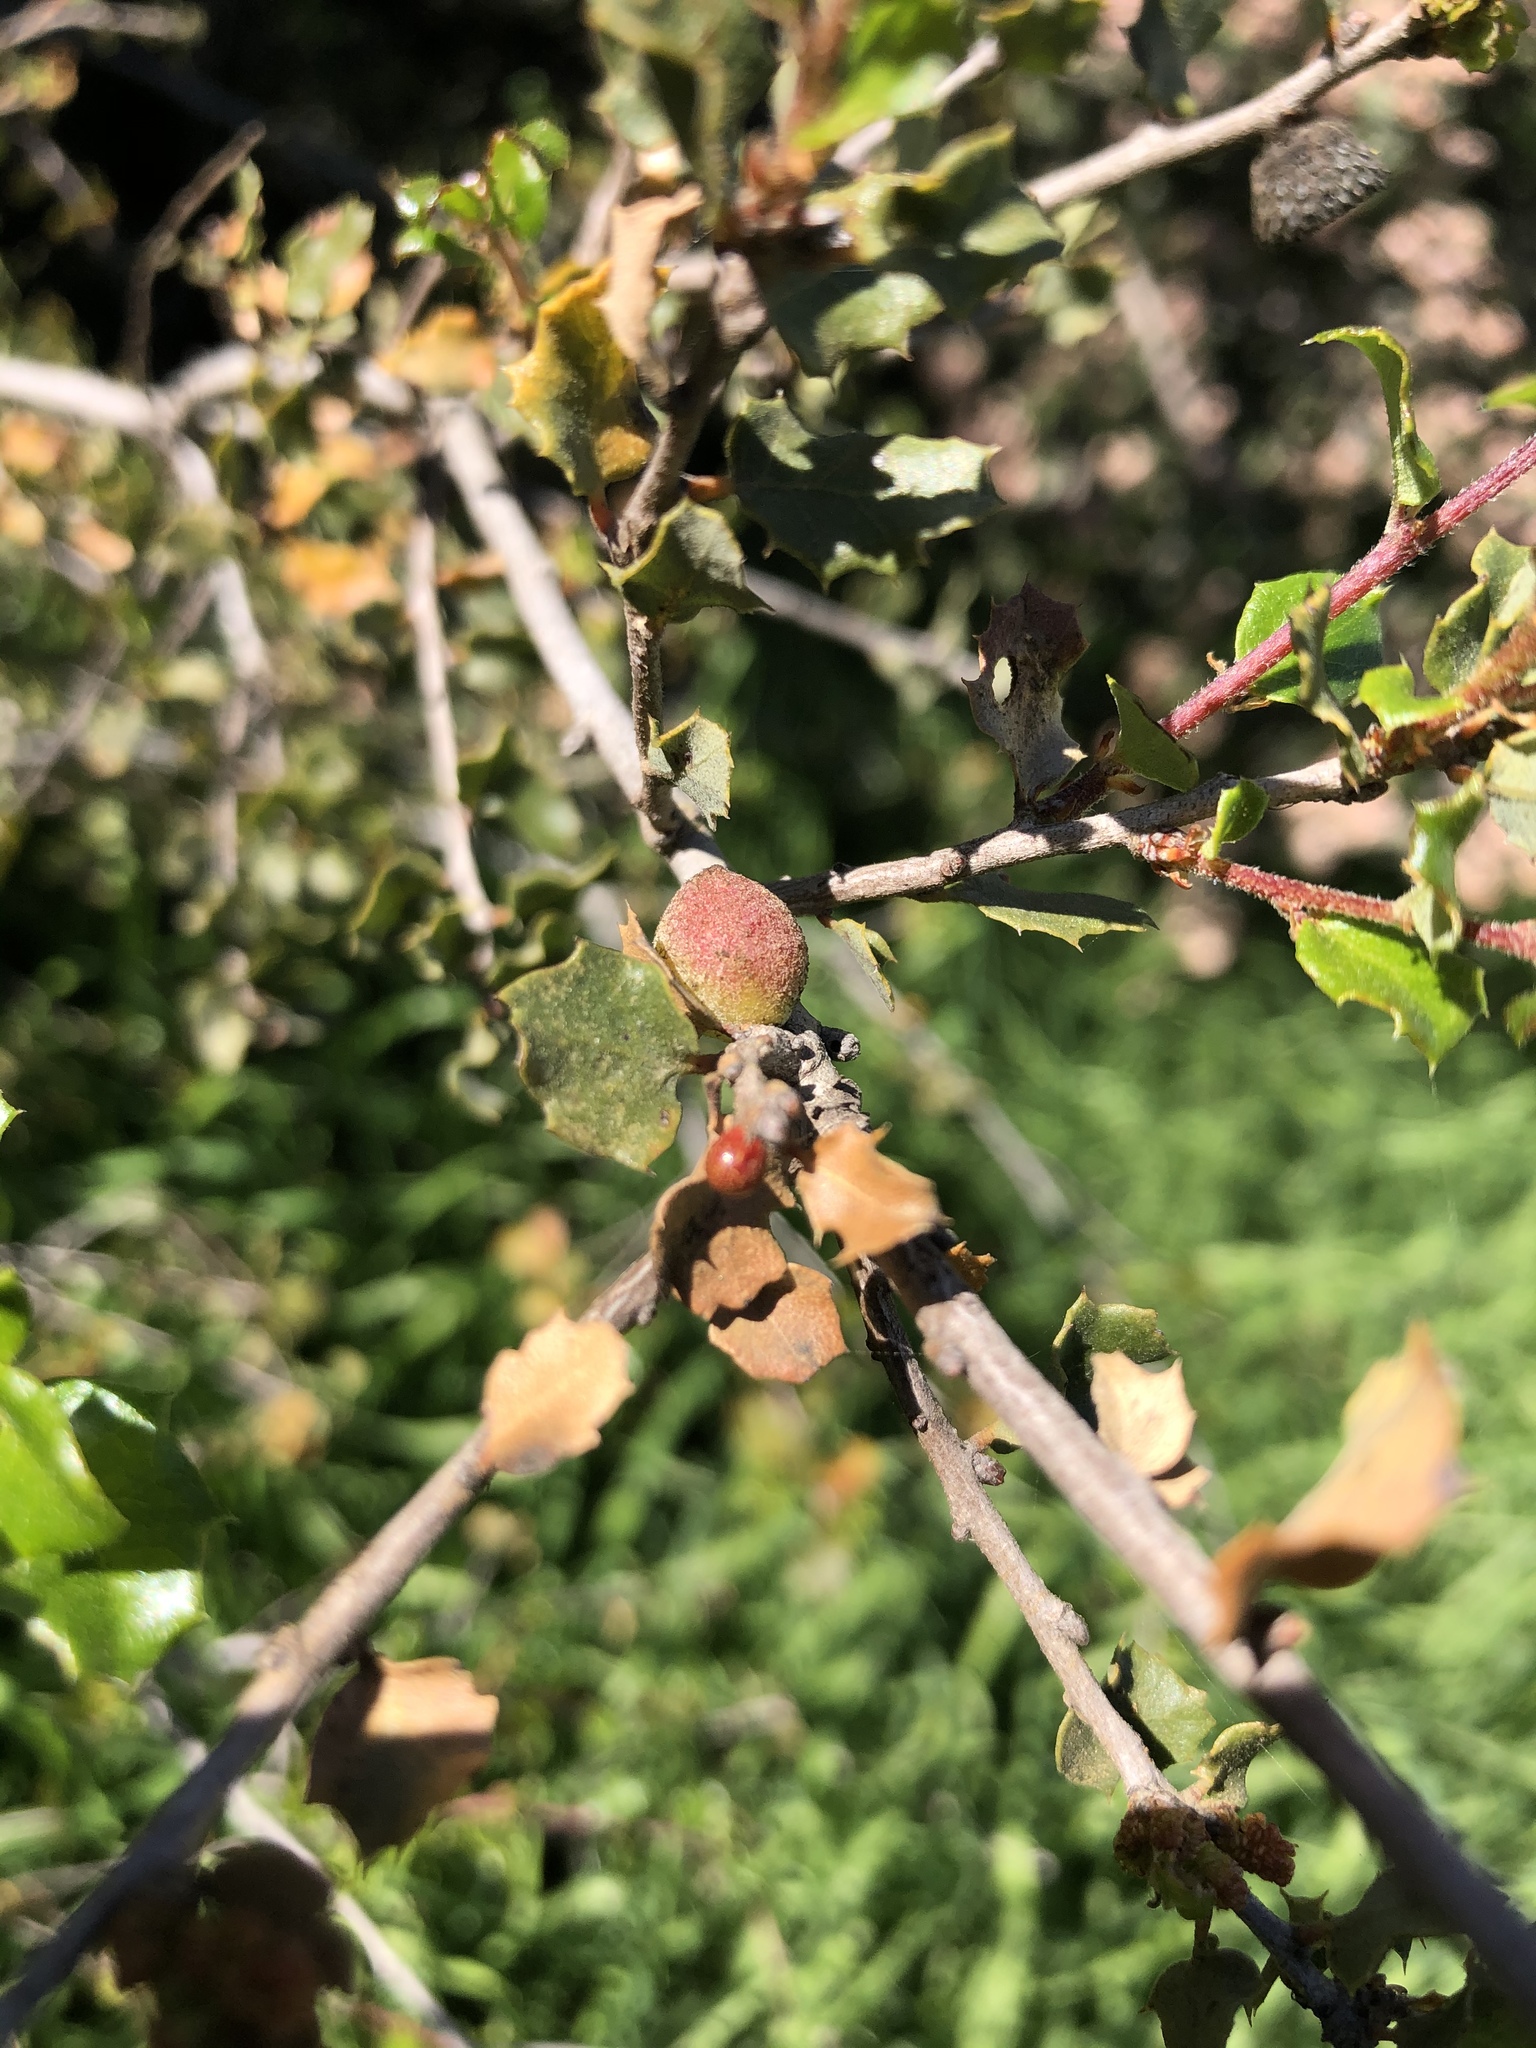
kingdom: Plantae
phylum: Tracheophyta
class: Magnoliopsida
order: Fagales
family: Fagaceae
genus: Quercus
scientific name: Quercus dumosa
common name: Coastal sage scrub oak
